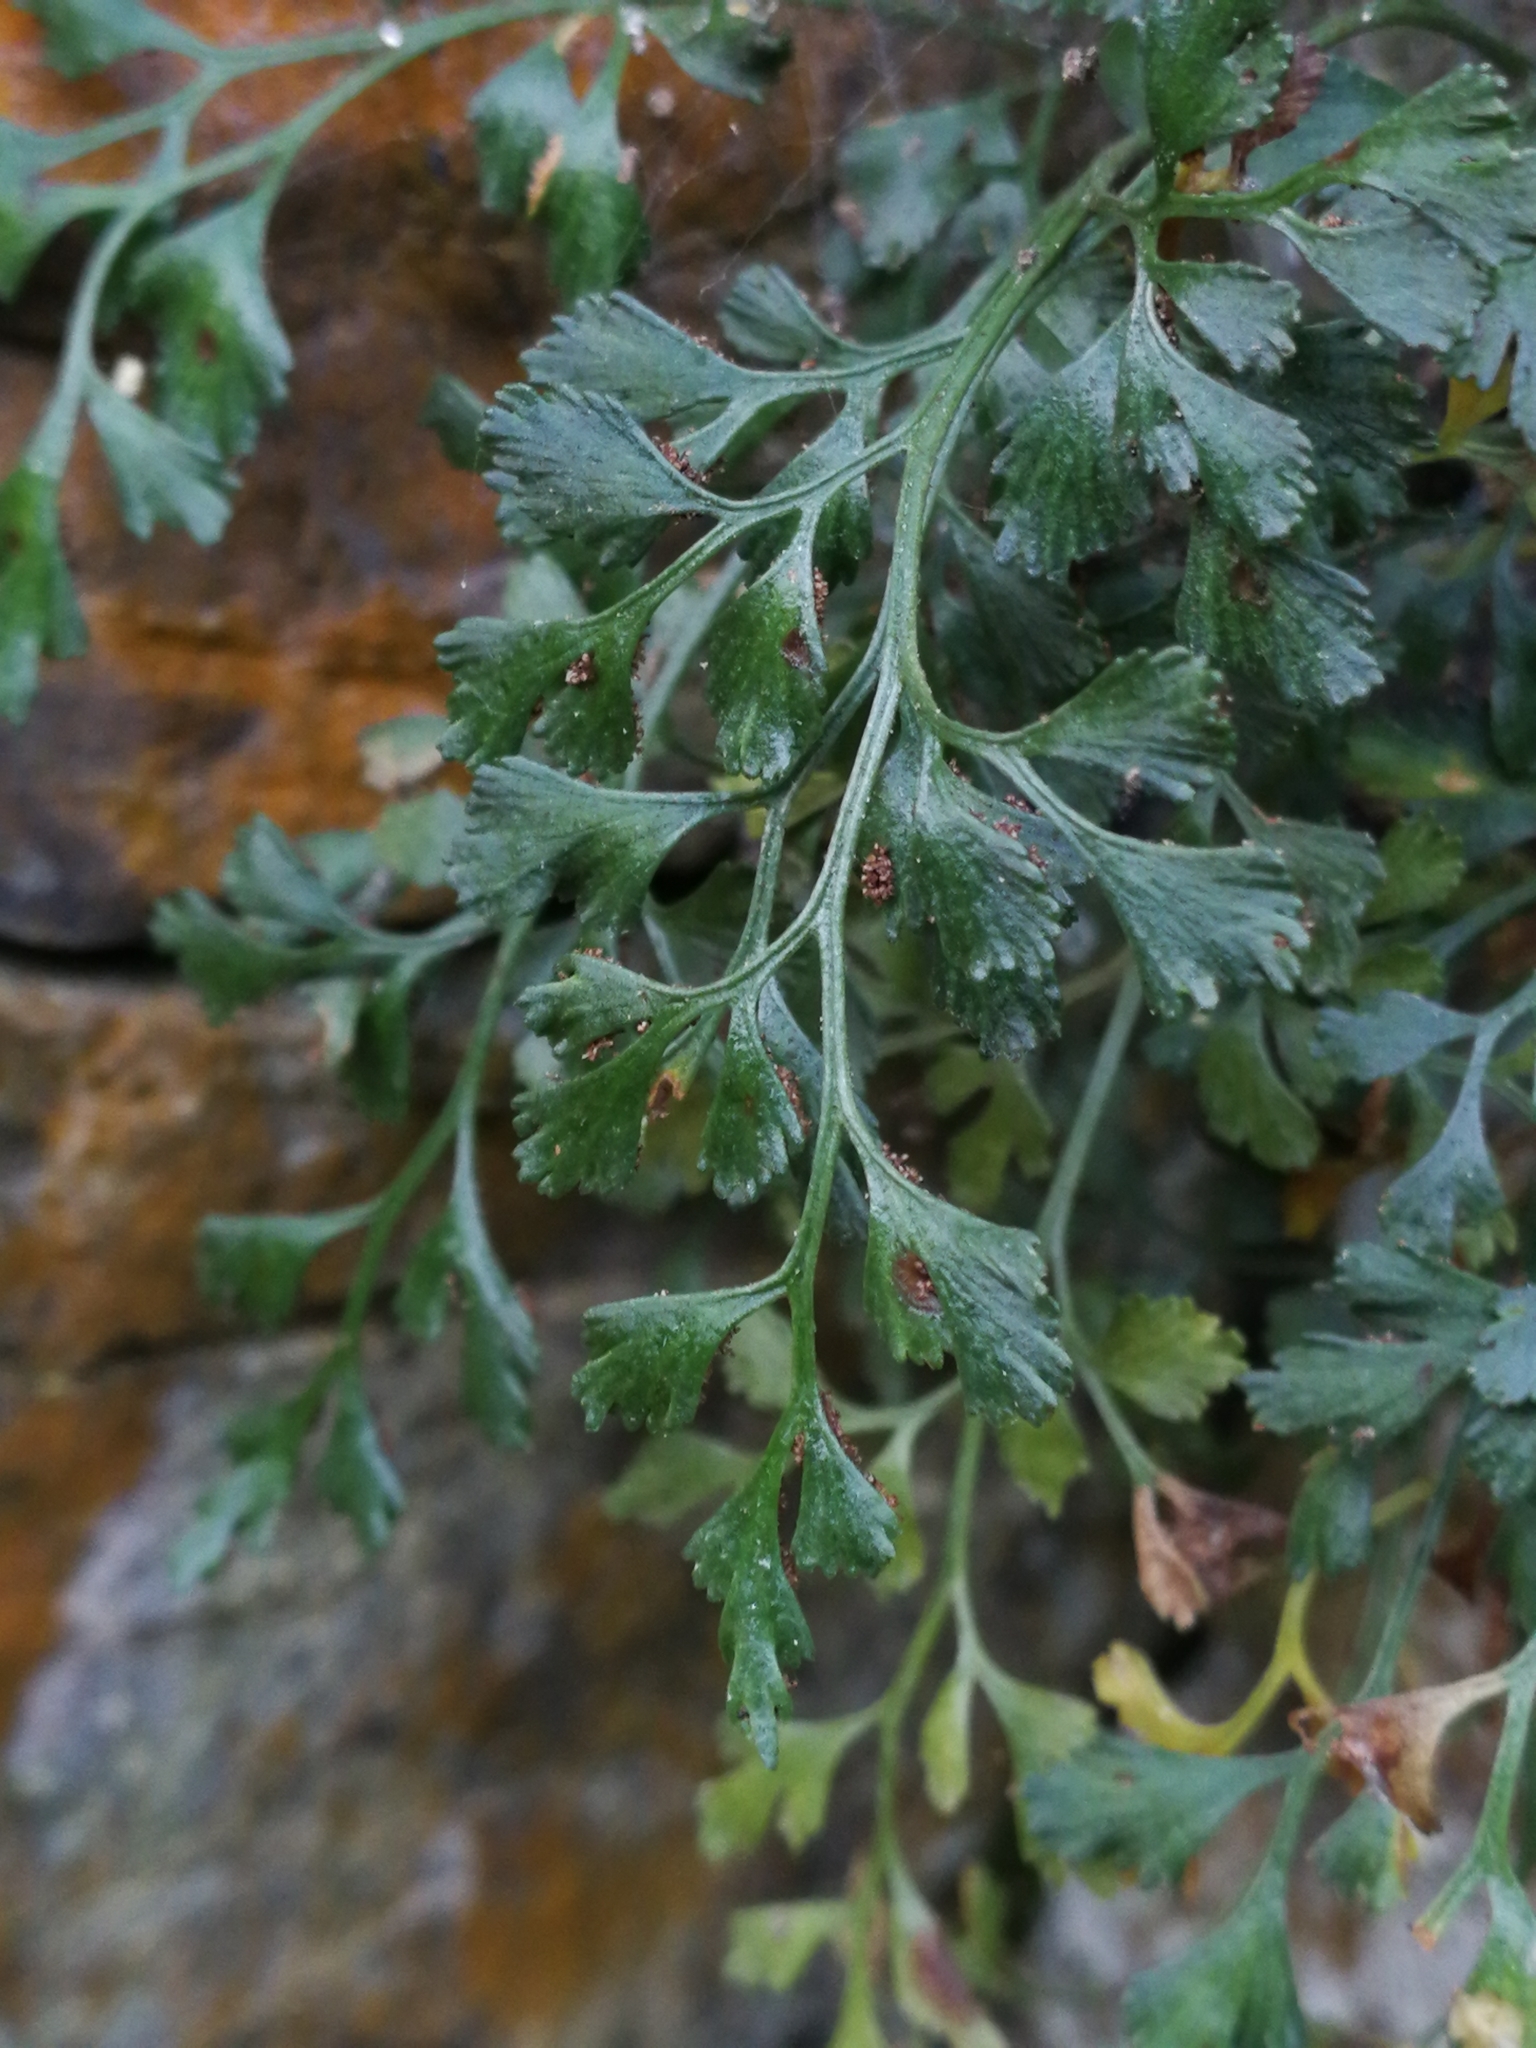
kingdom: Plantae
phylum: Tracheophyta
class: Polypodiopsida
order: Polypodiales
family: Aspleniaceae
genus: Asplenium
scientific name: Asplenium ruta-muraria
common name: Wall-rue
